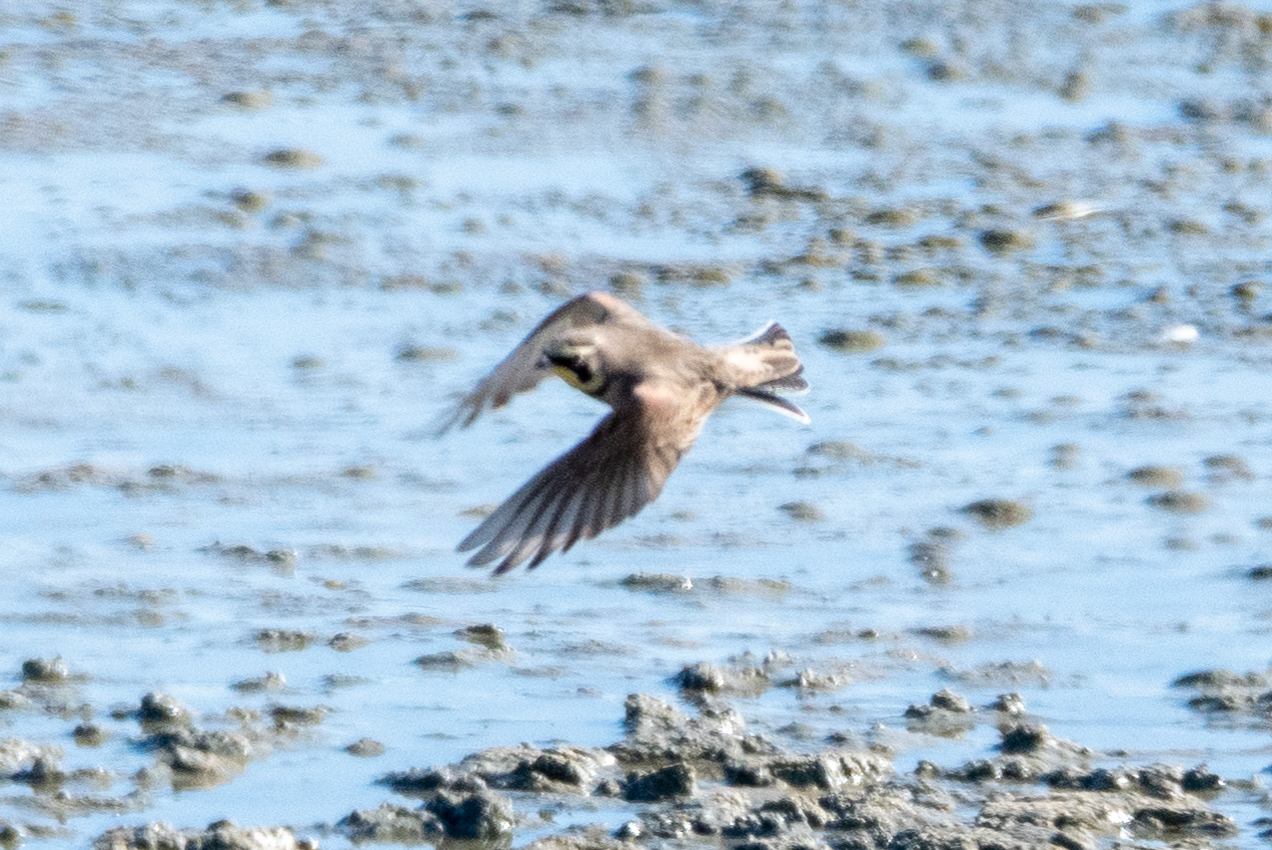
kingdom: Animalia
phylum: Chordata
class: Aves
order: Passeriformes
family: Alaudidae
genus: Eremophila
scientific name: Eremophila alpestris
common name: Horned lark
